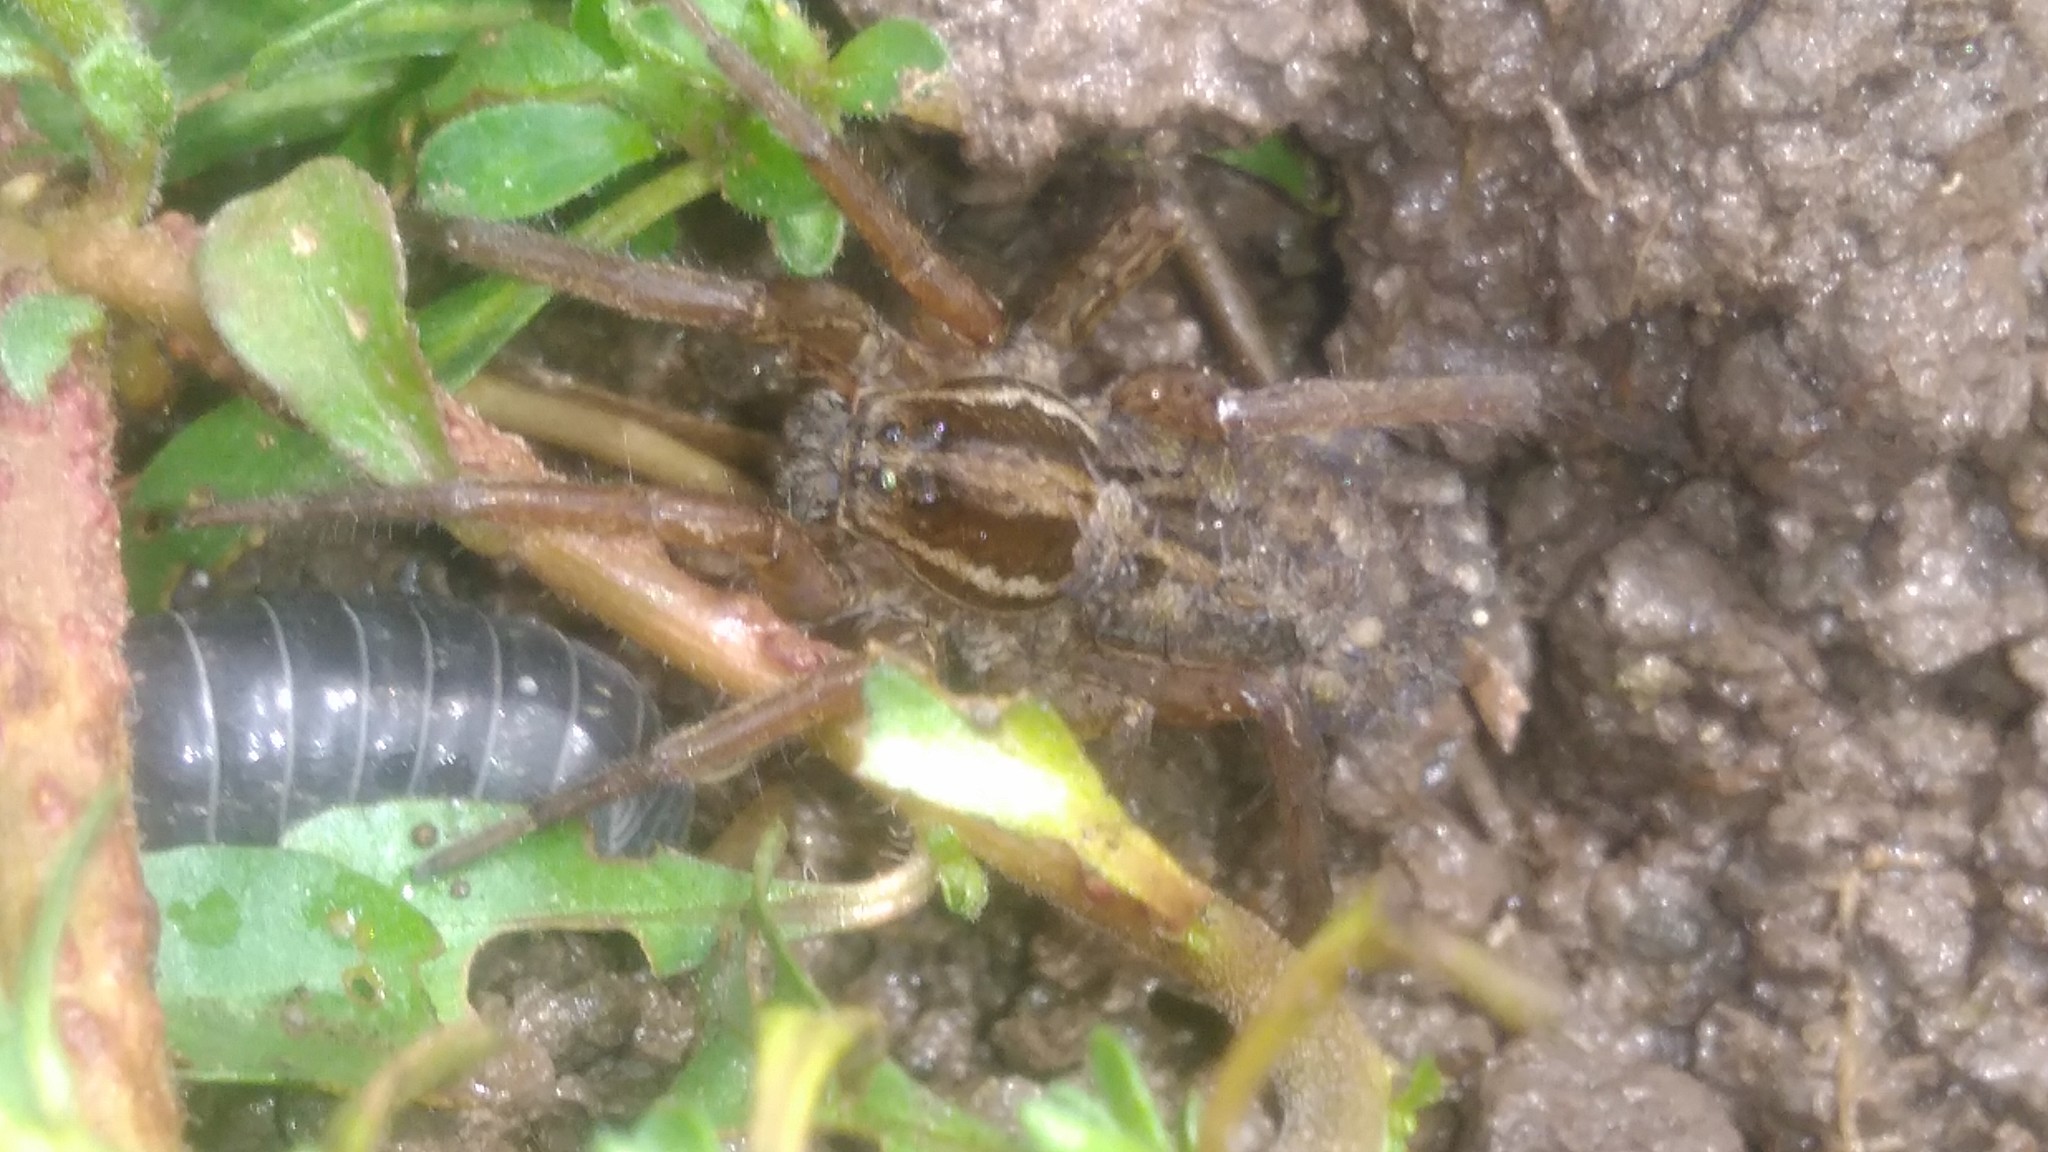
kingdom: Animalia
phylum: Arthropoda
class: Arachnida
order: Araneae
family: Lycosidae
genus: Alopecosa
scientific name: Alopecosa moesta
